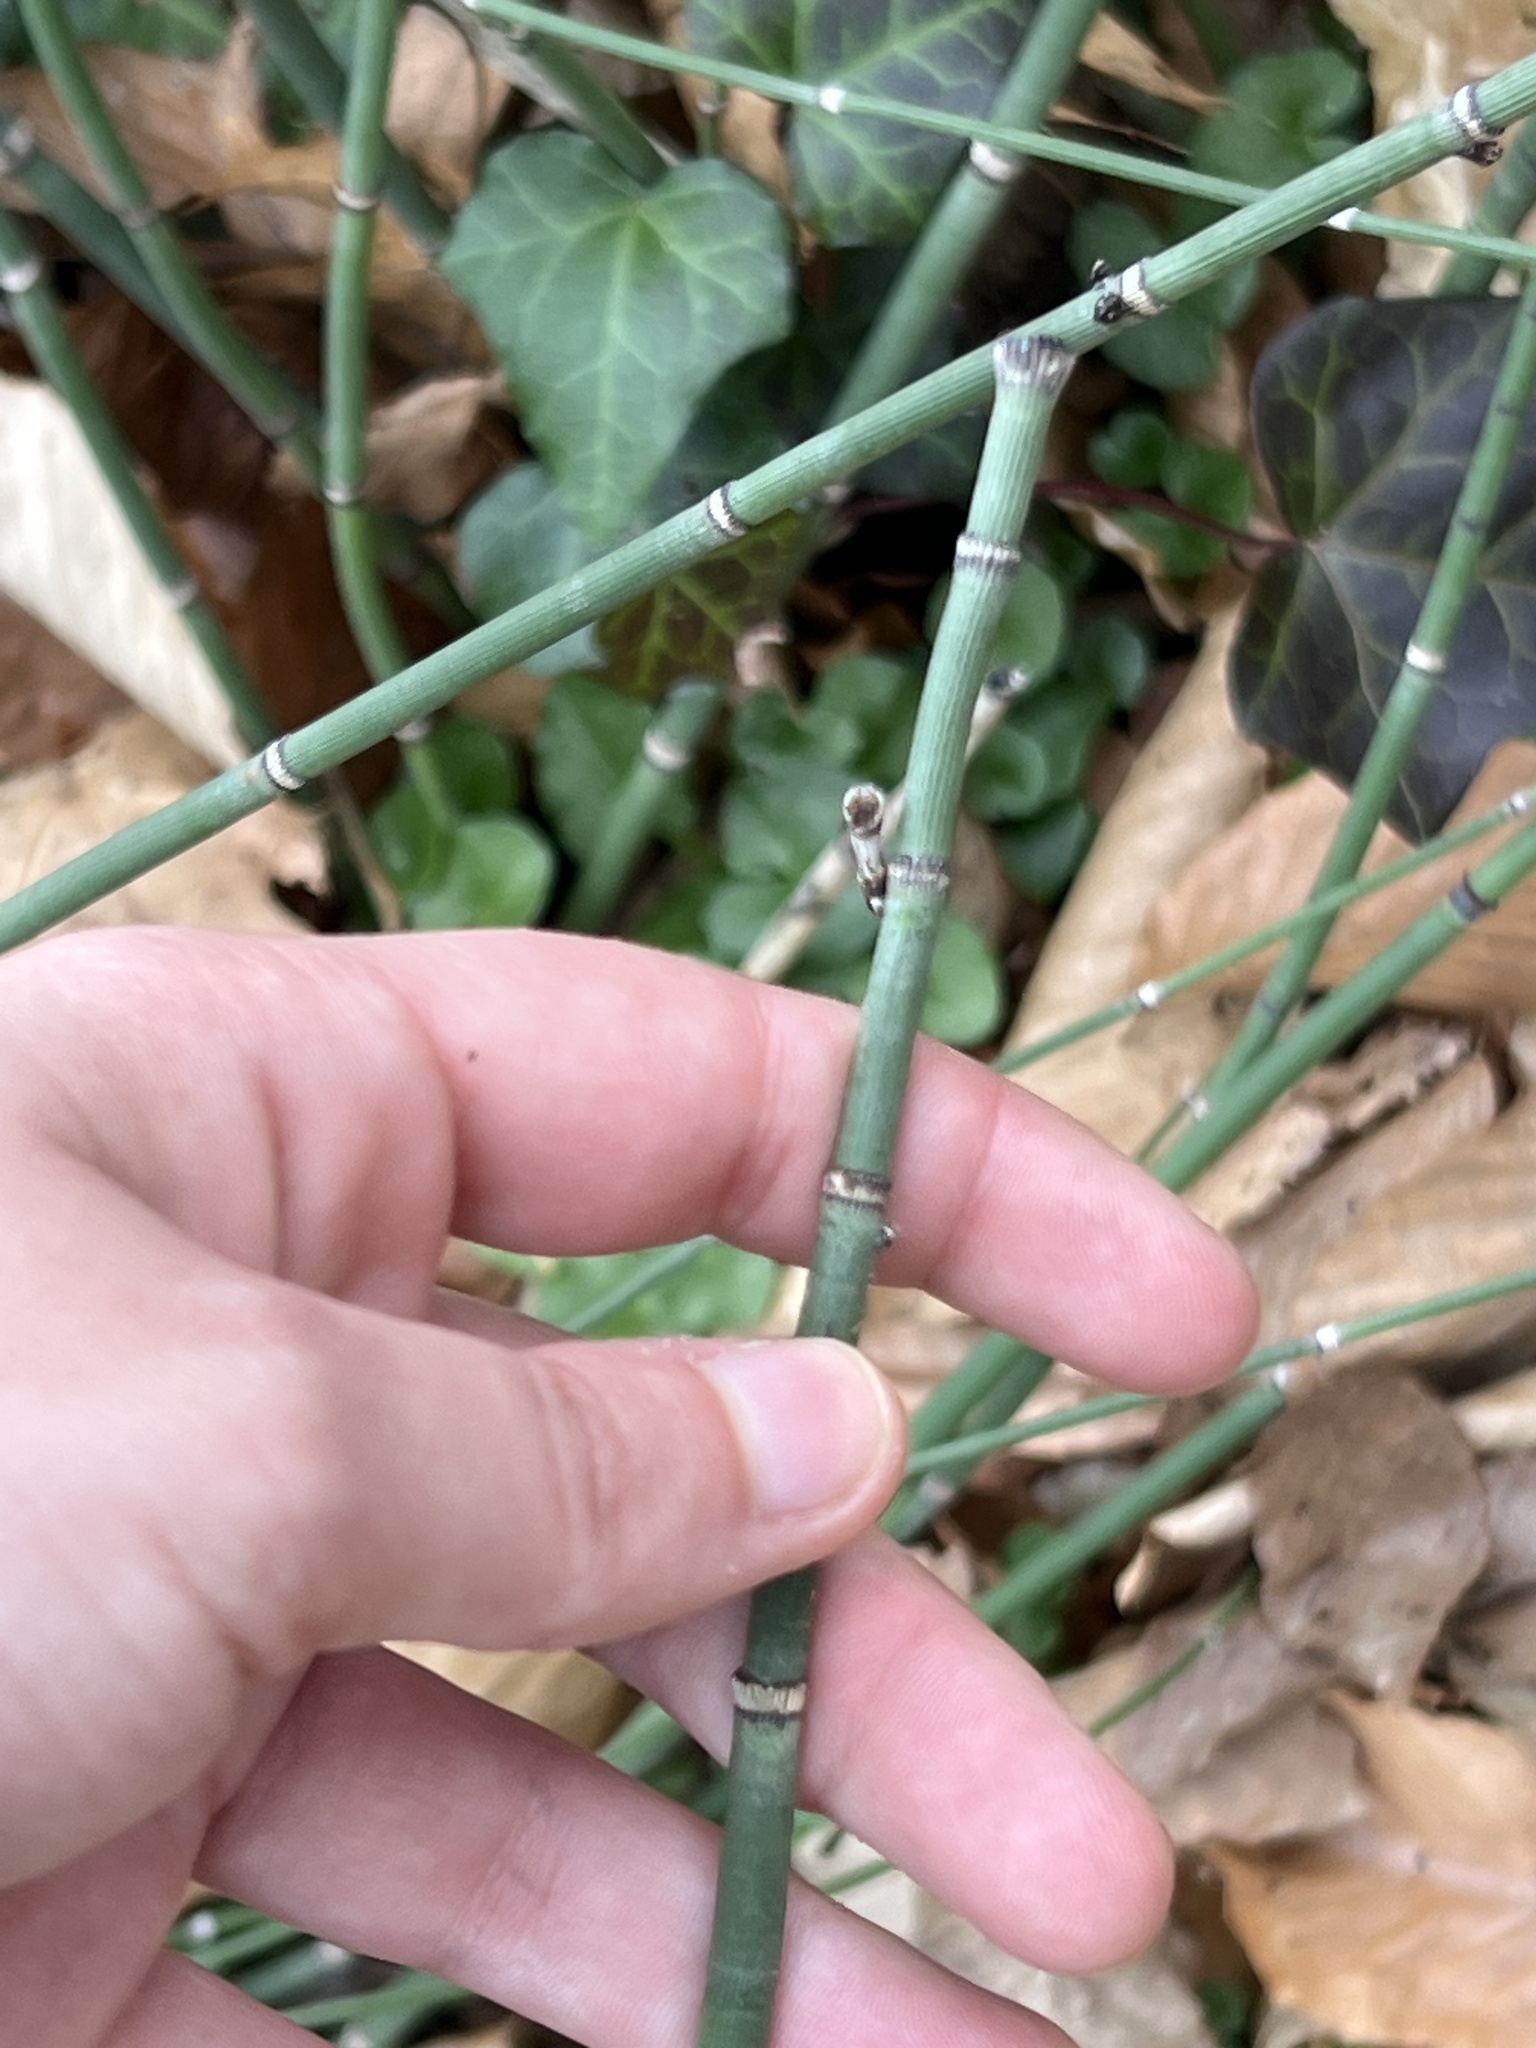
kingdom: Plantae
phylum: Tracheophyta
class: Polypodiopsida
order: Equisetales
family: Equisetaceae
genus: Equisetum
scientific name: Equisetum praealtum
